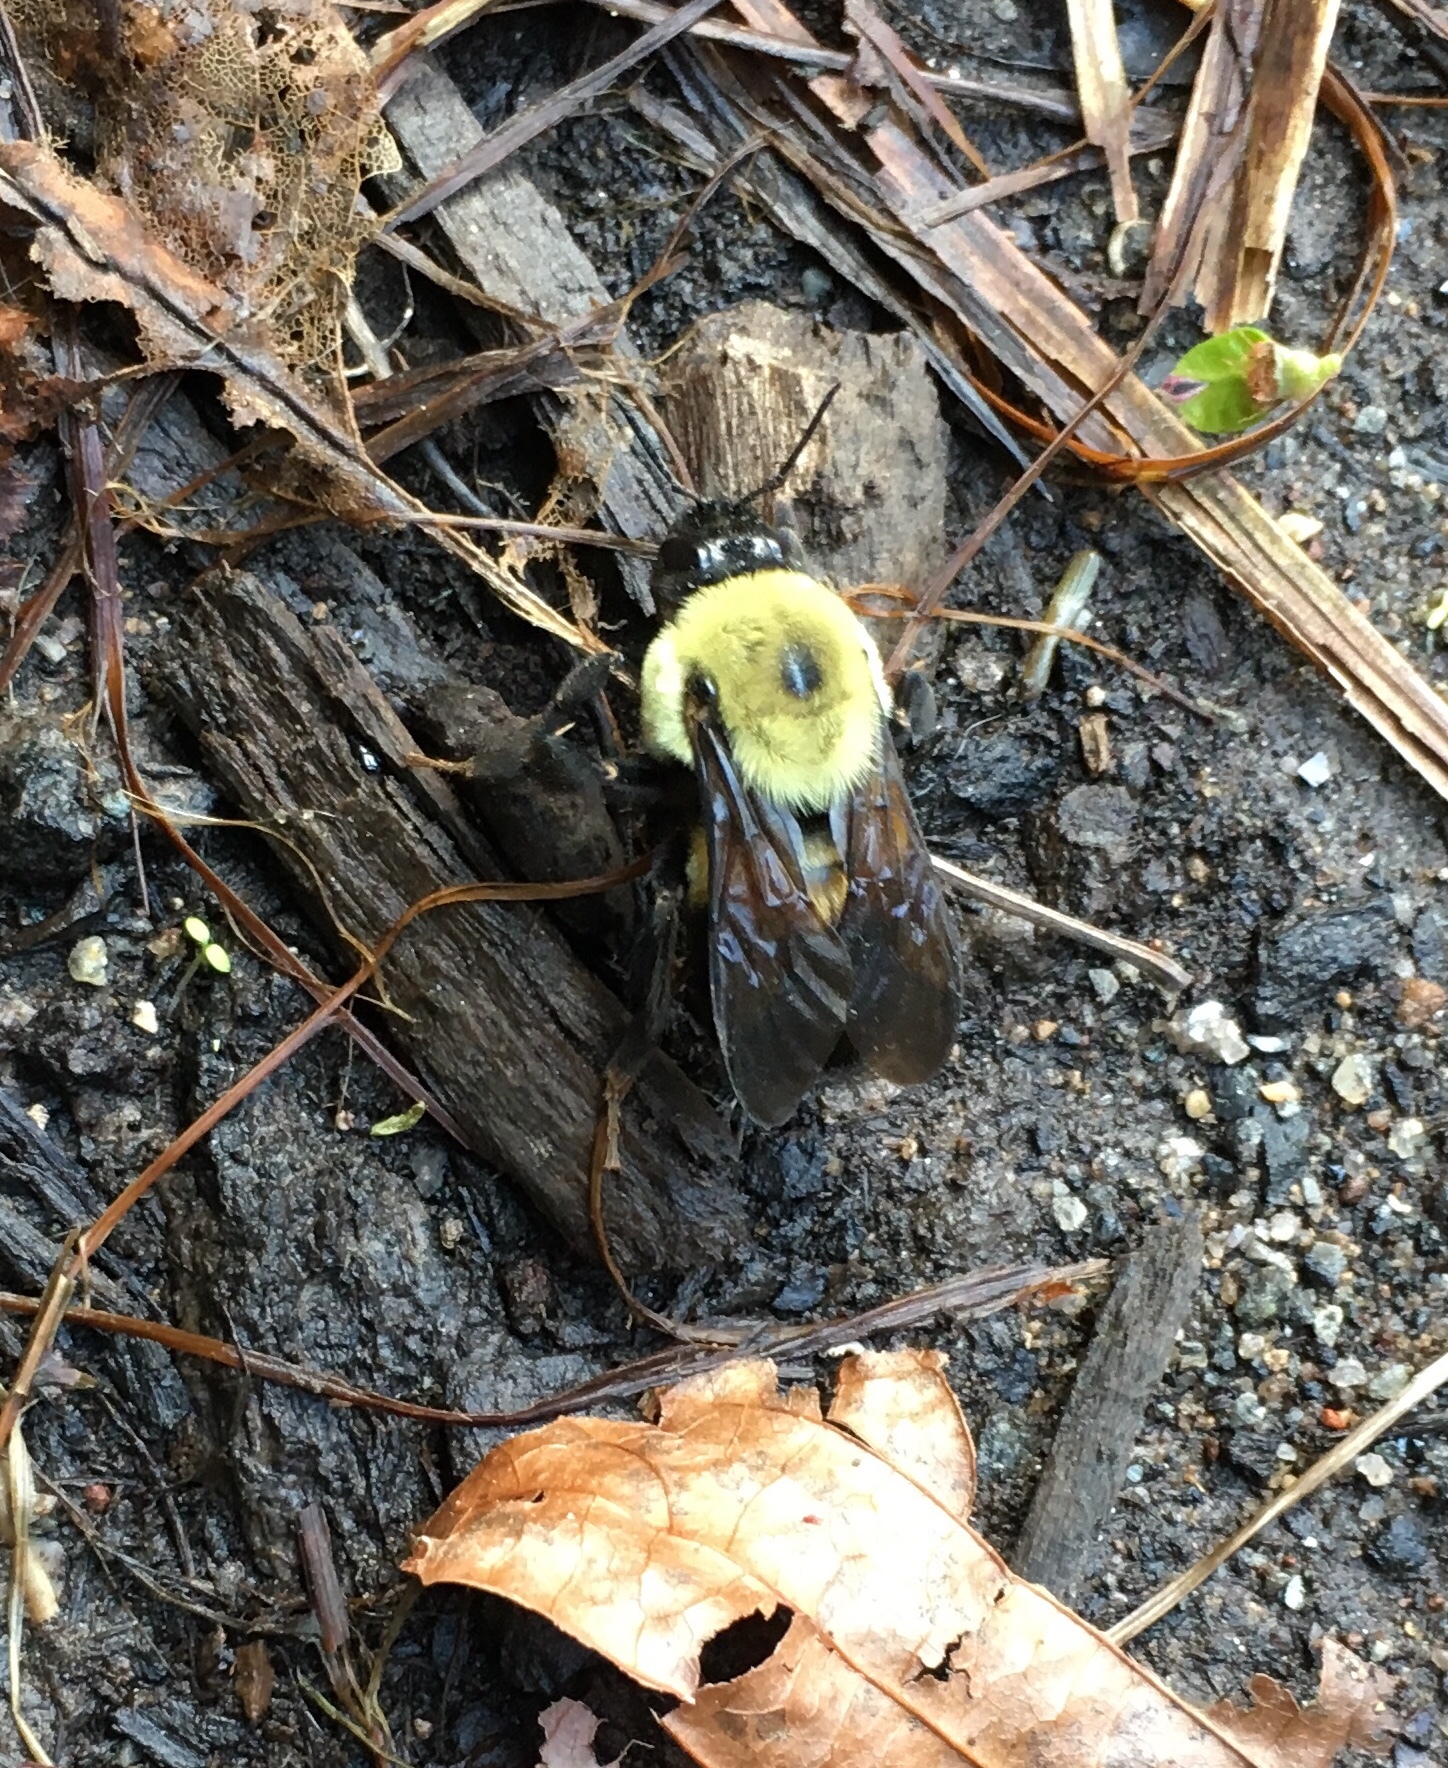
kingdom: Animalia
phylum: Arthropoda
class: Insecta
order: Hymenoptera
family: Apidae
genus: Bombus
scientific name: Bombus griseocollis
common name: Brown-belted bumble bee
